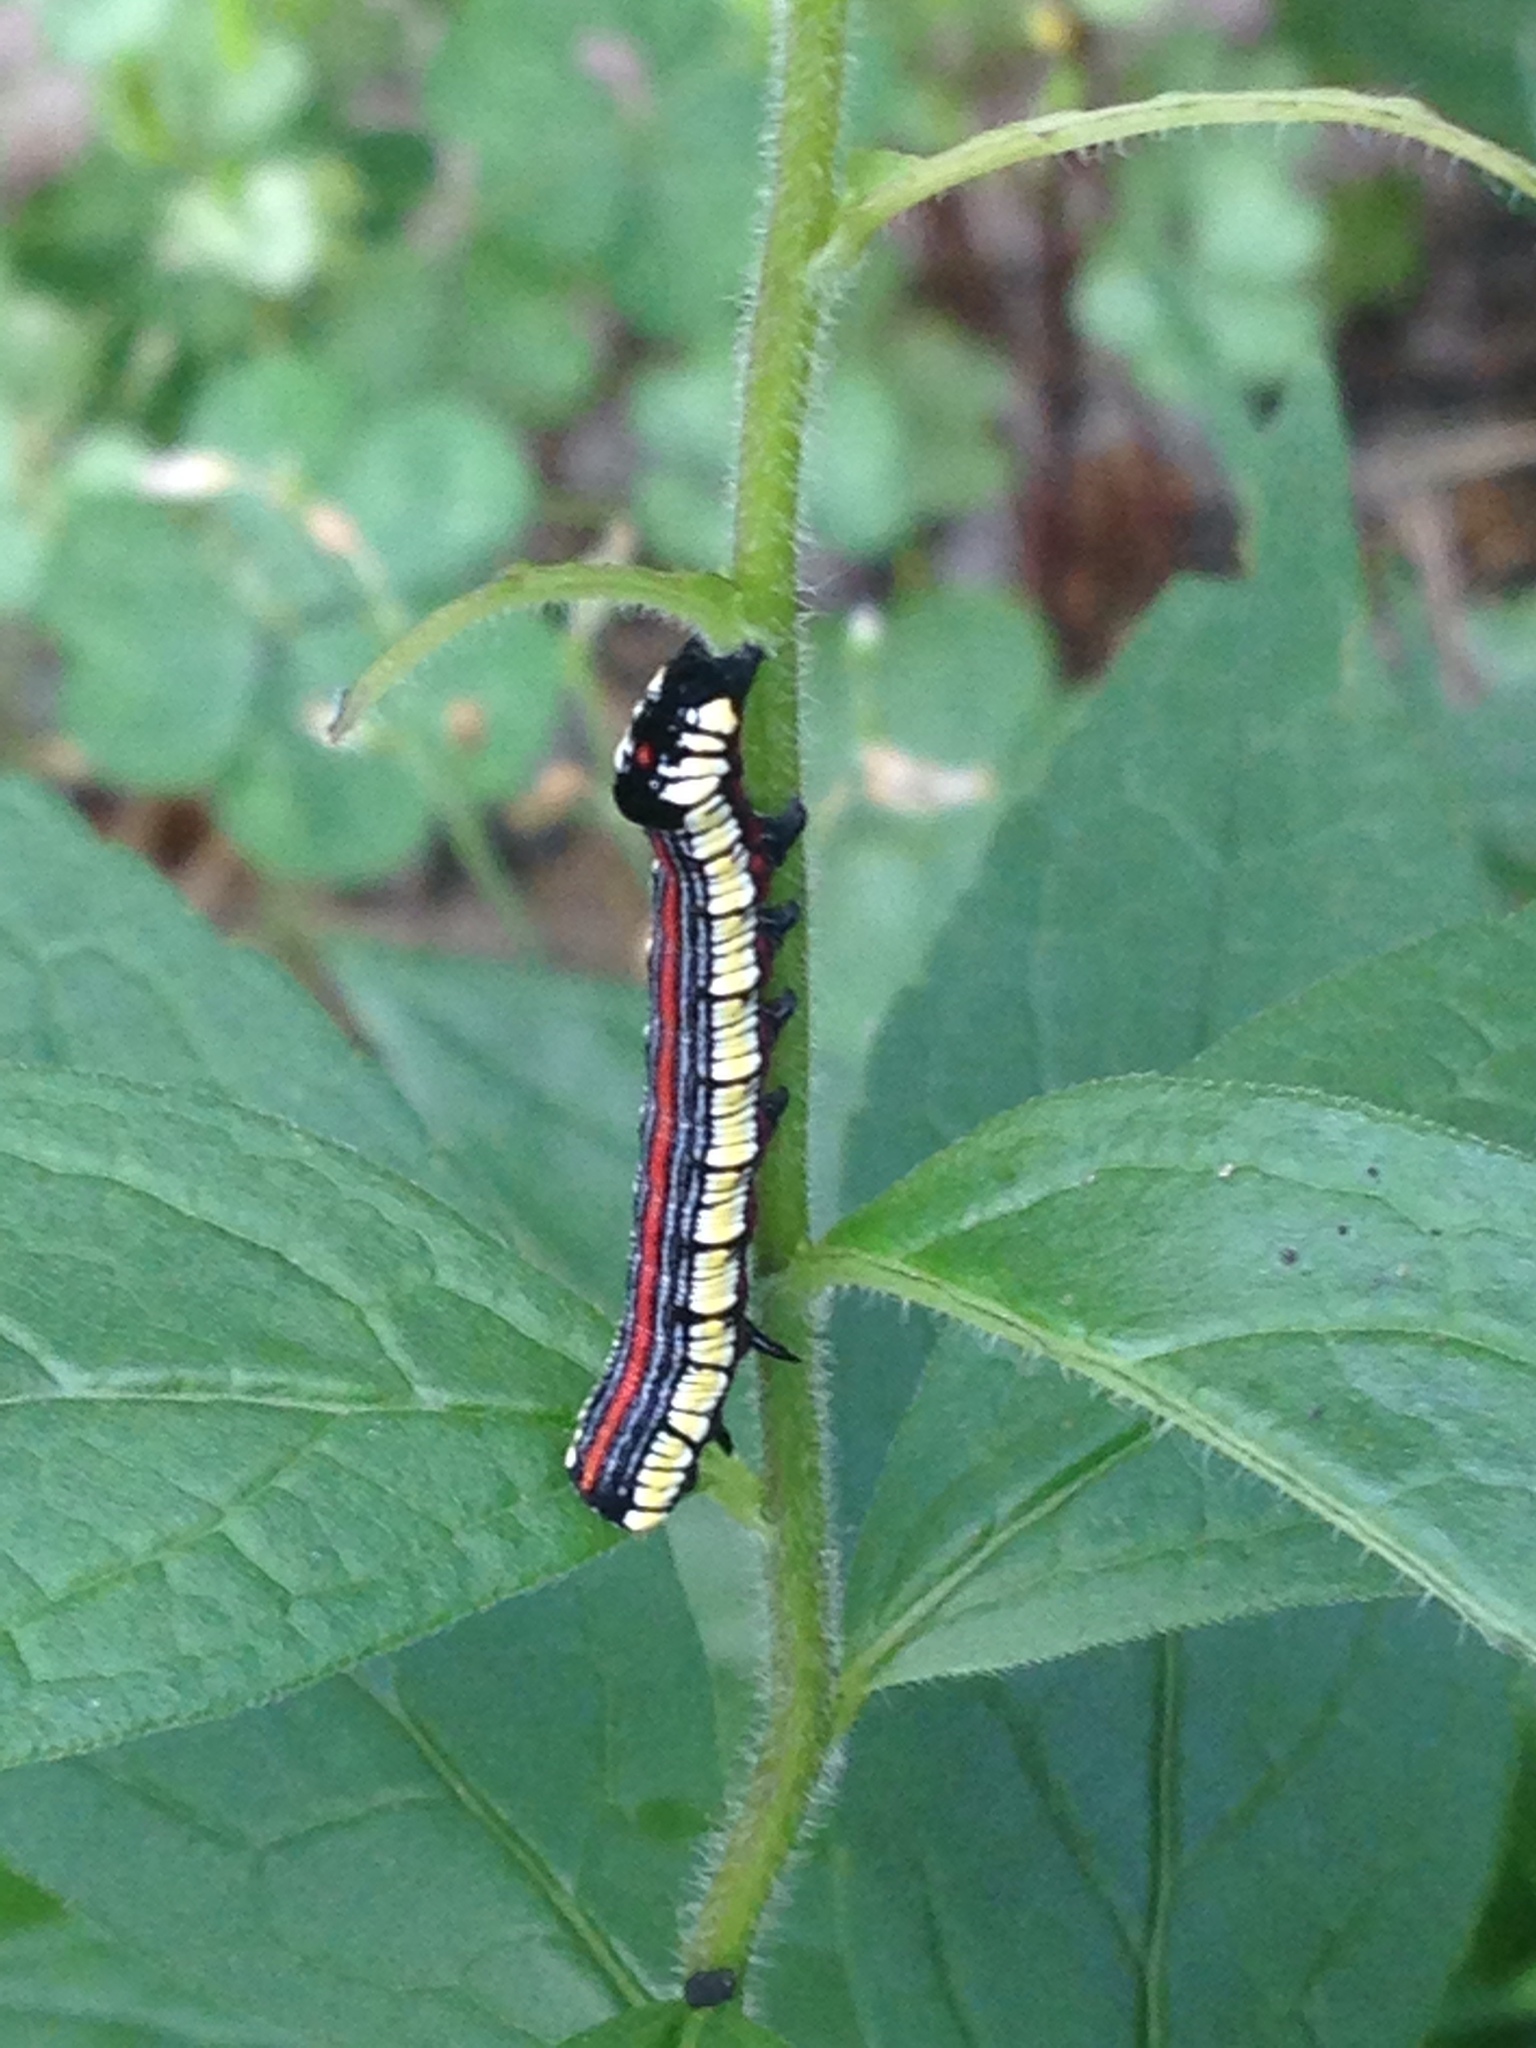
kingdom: Animalia
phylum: Arthropoda
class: Insecta
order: Lepidoptera
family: Noctuidae
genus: Cucullia
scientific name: Cucullia convexipennis
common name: Brown-hooded owlet
